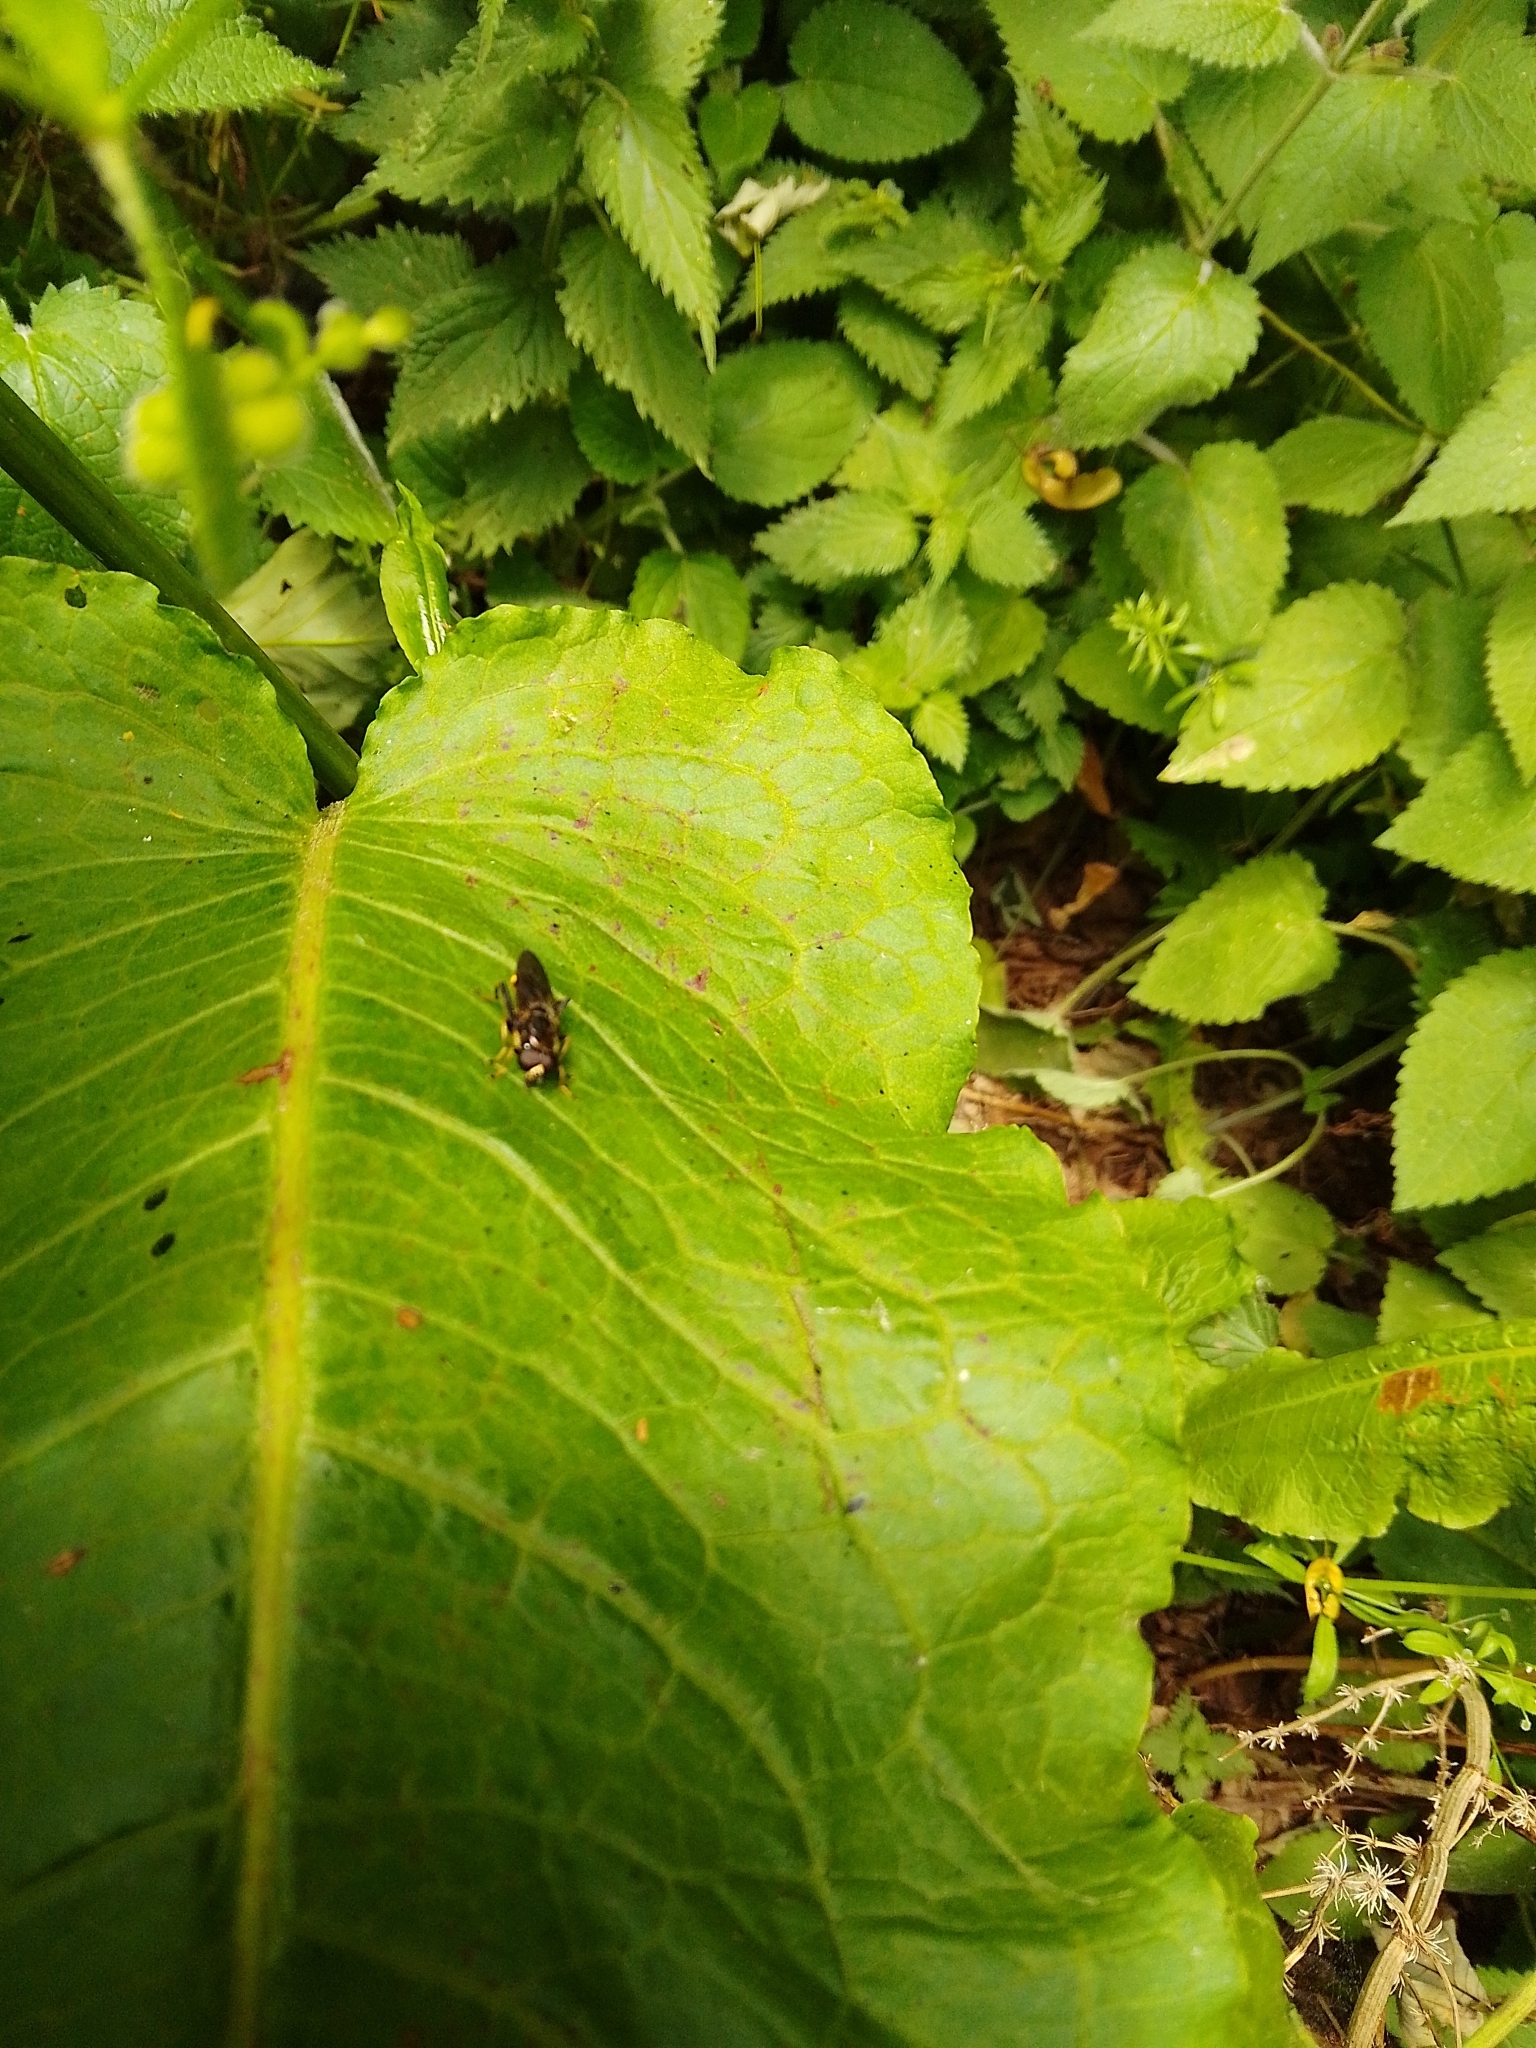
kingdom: Animalia
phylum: Arthropoda
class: Insecta
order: Diptera
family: Syrphidae
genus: Xylota
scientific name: Xylota sylvarum
